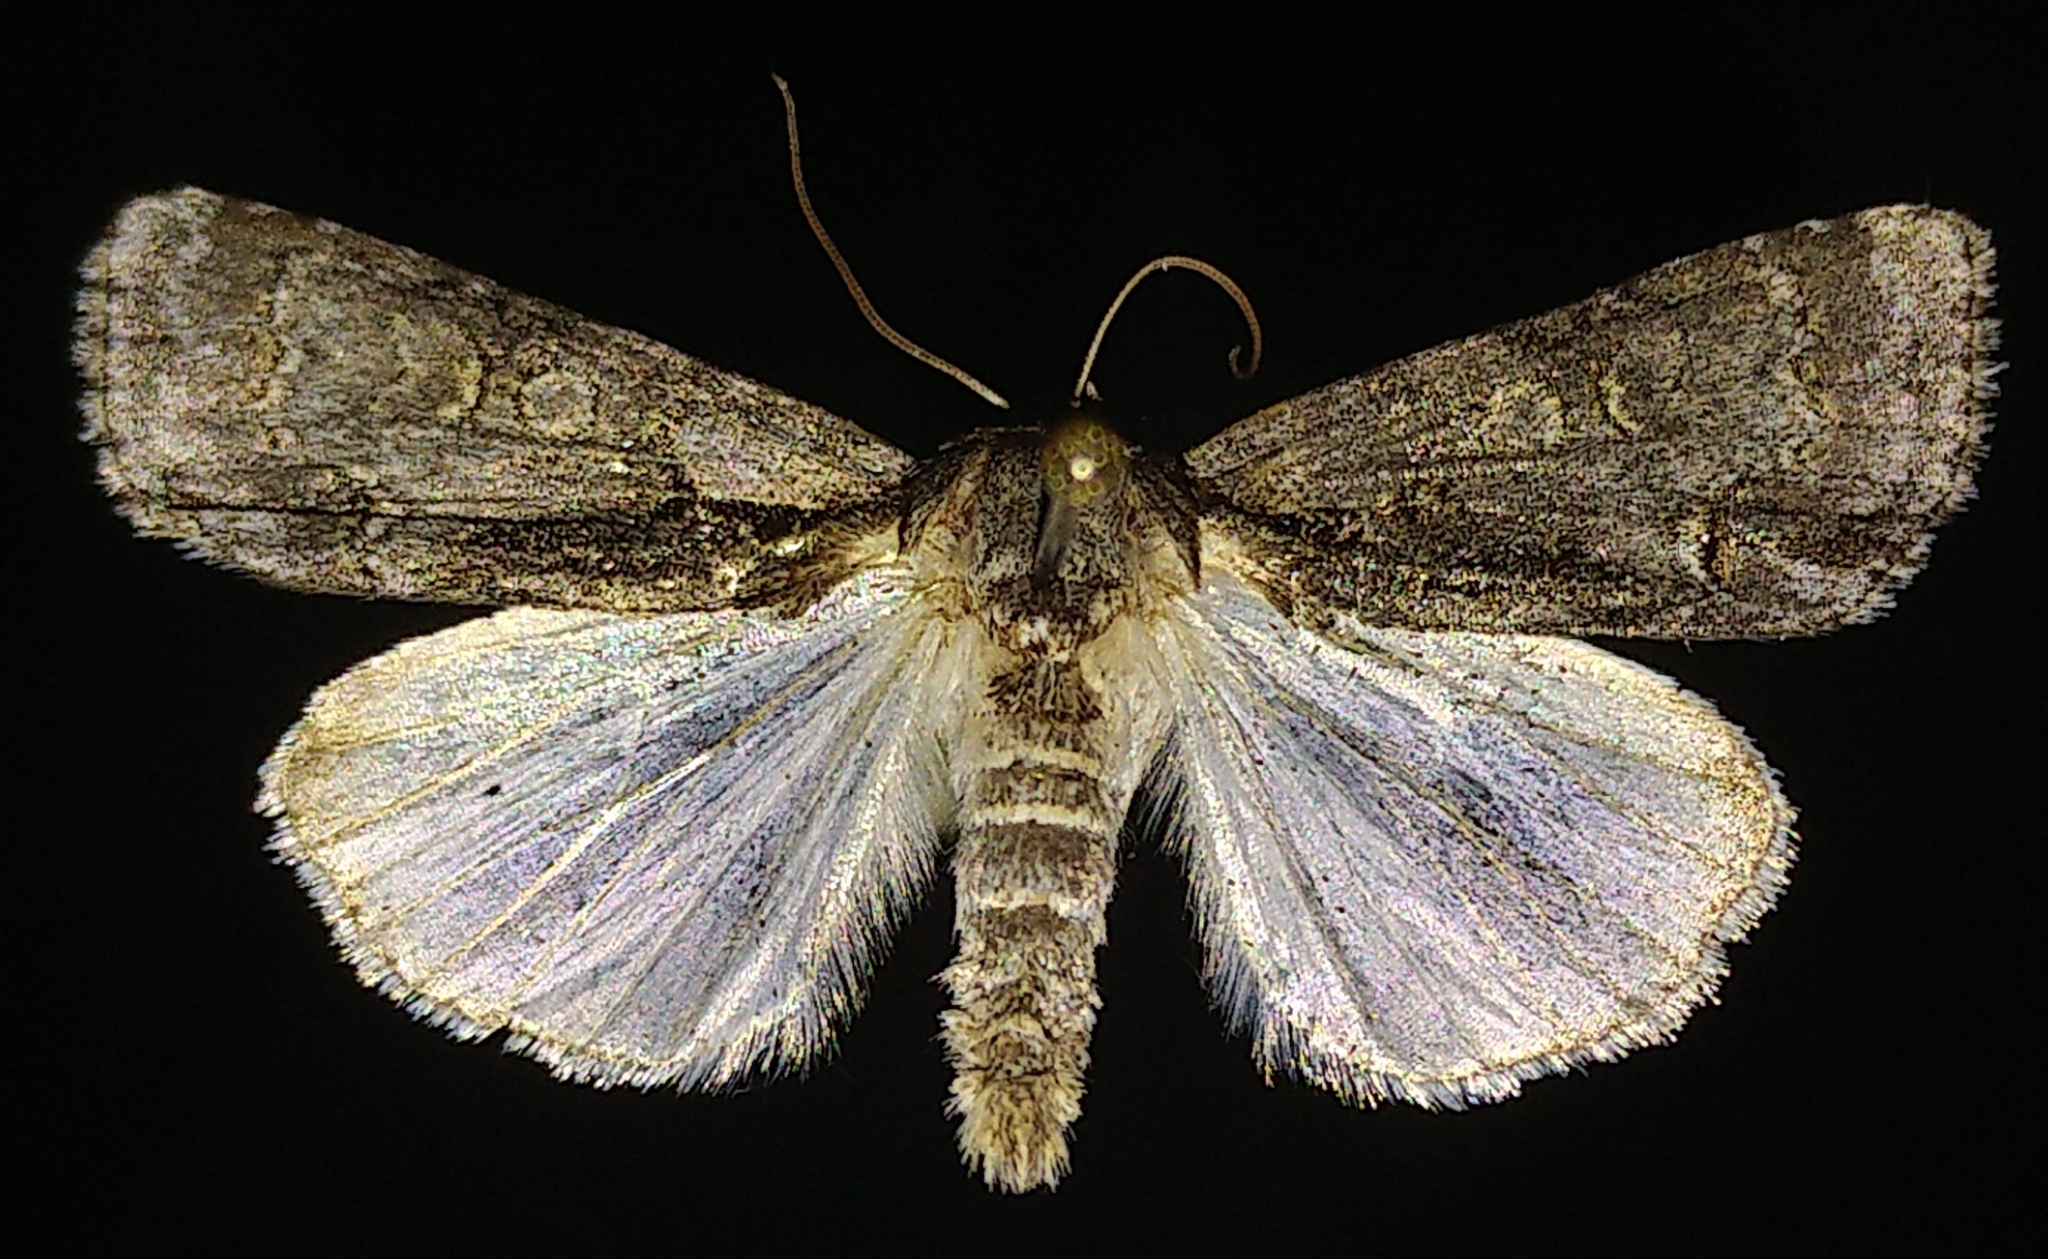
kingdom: Animalia
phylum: Arthropoda
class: Insecta
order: Lepidoptera
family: Noctuidae
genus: Acronicta
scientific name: Acronicta mansueta
